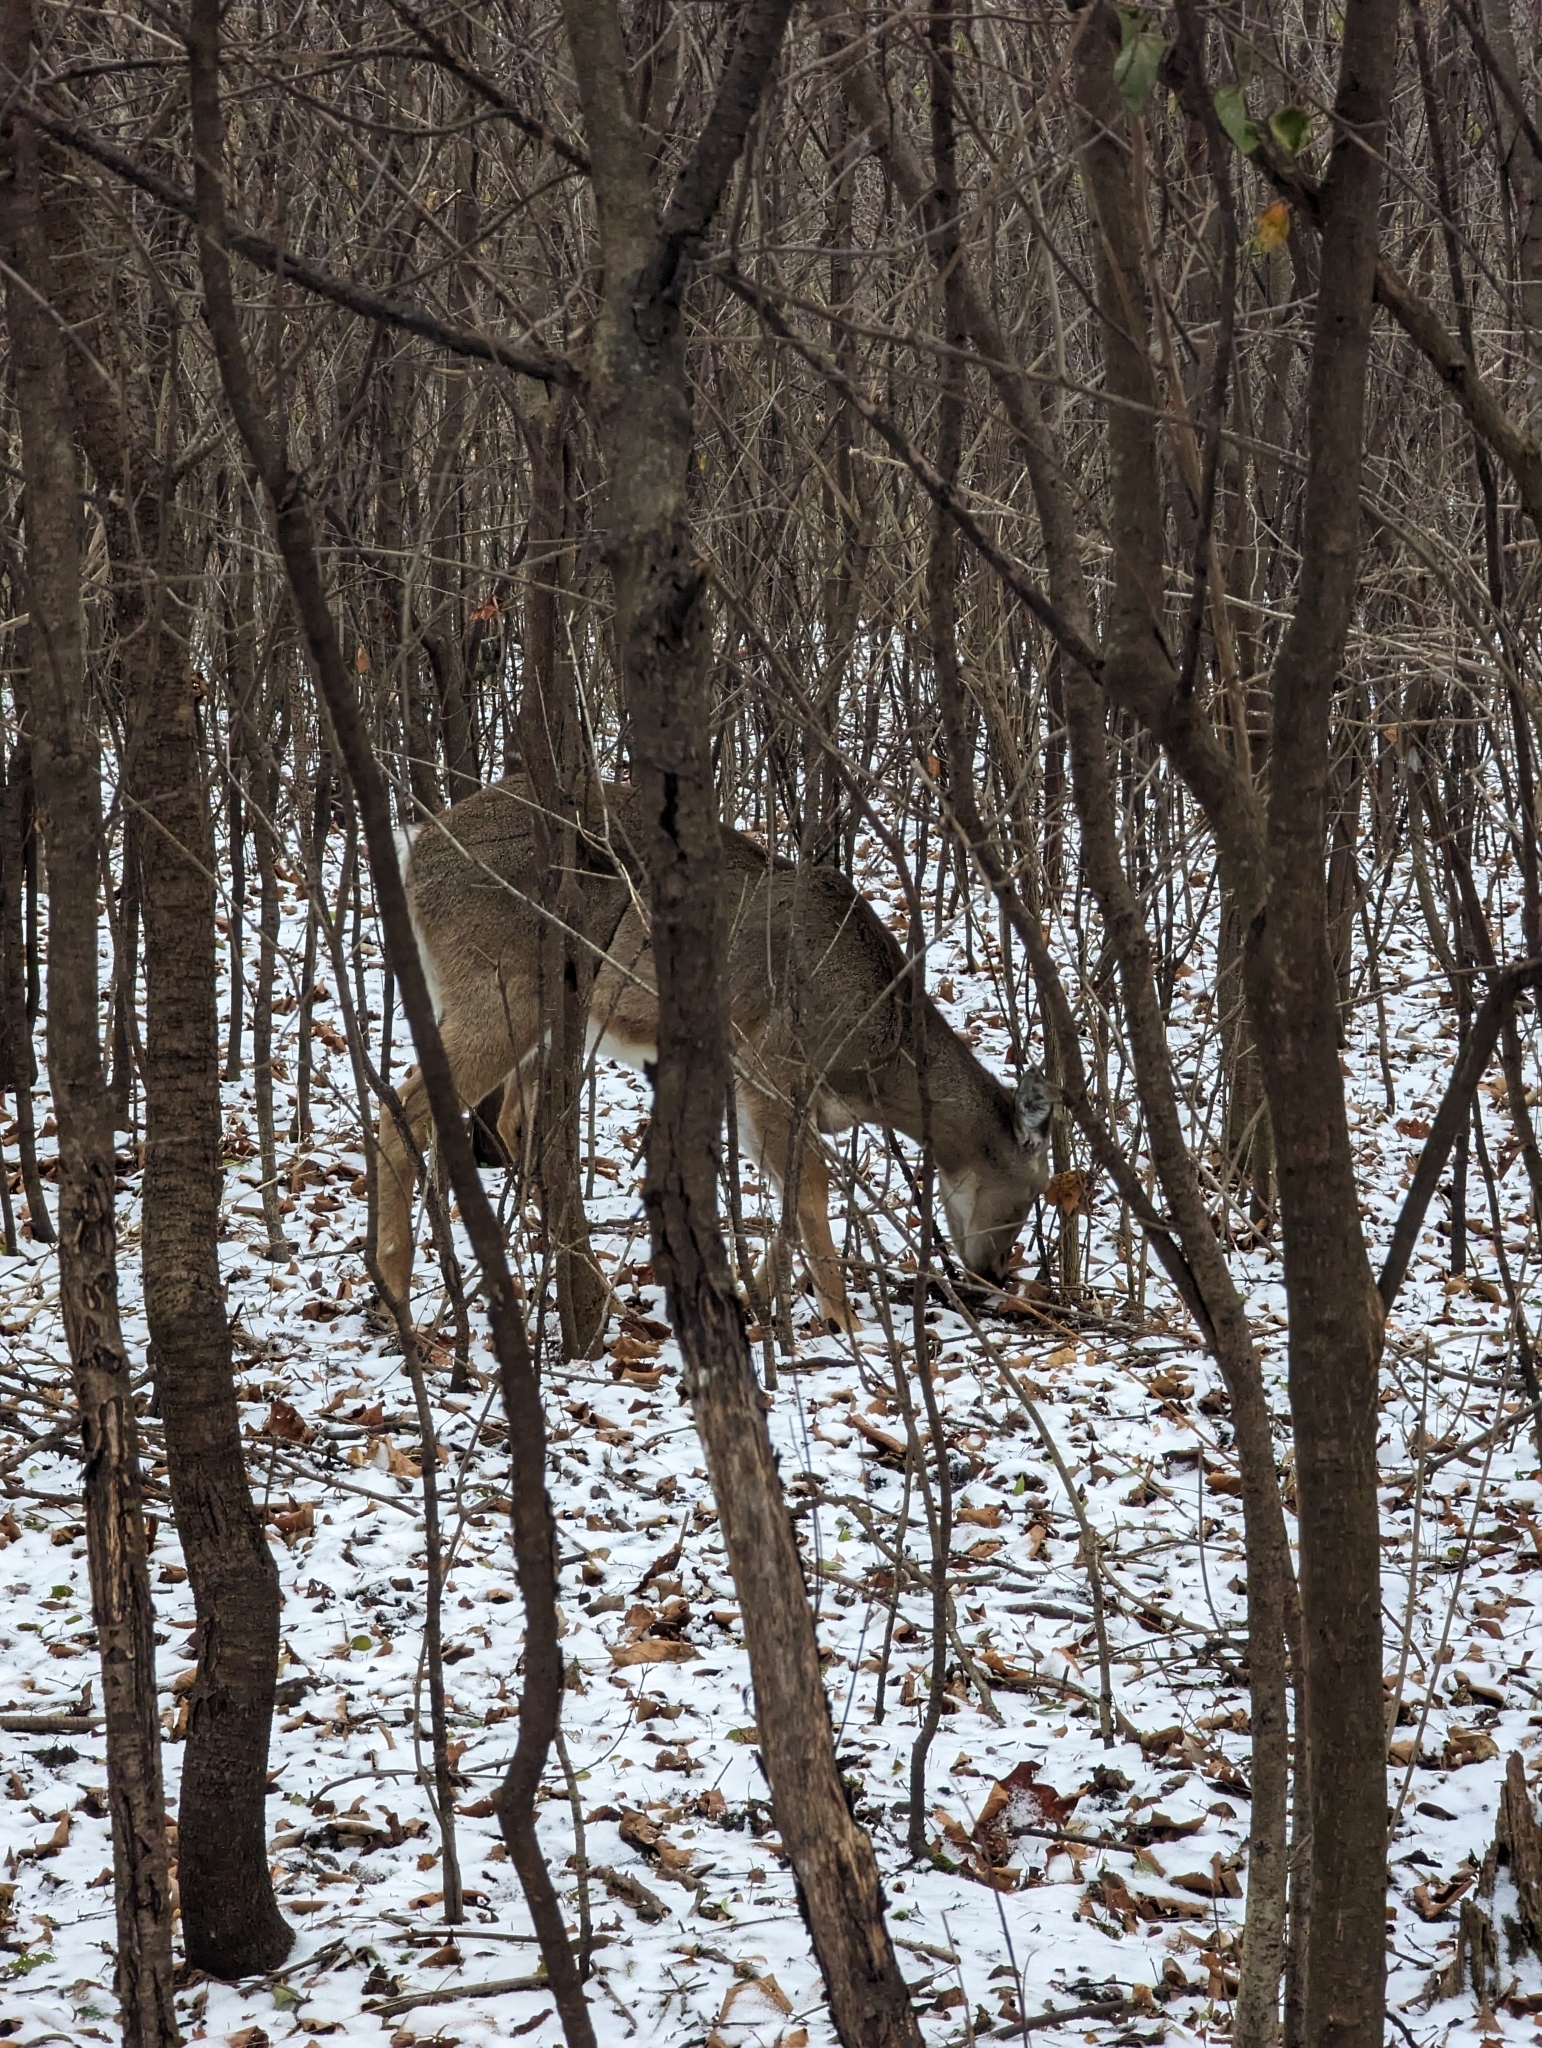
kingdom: Animalia
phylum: Chordata
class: Mammalia
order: Artiodactyla
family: Cervidae
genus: Odocoileus
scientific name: Odocoileus virginianus
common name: White-tailed deer
